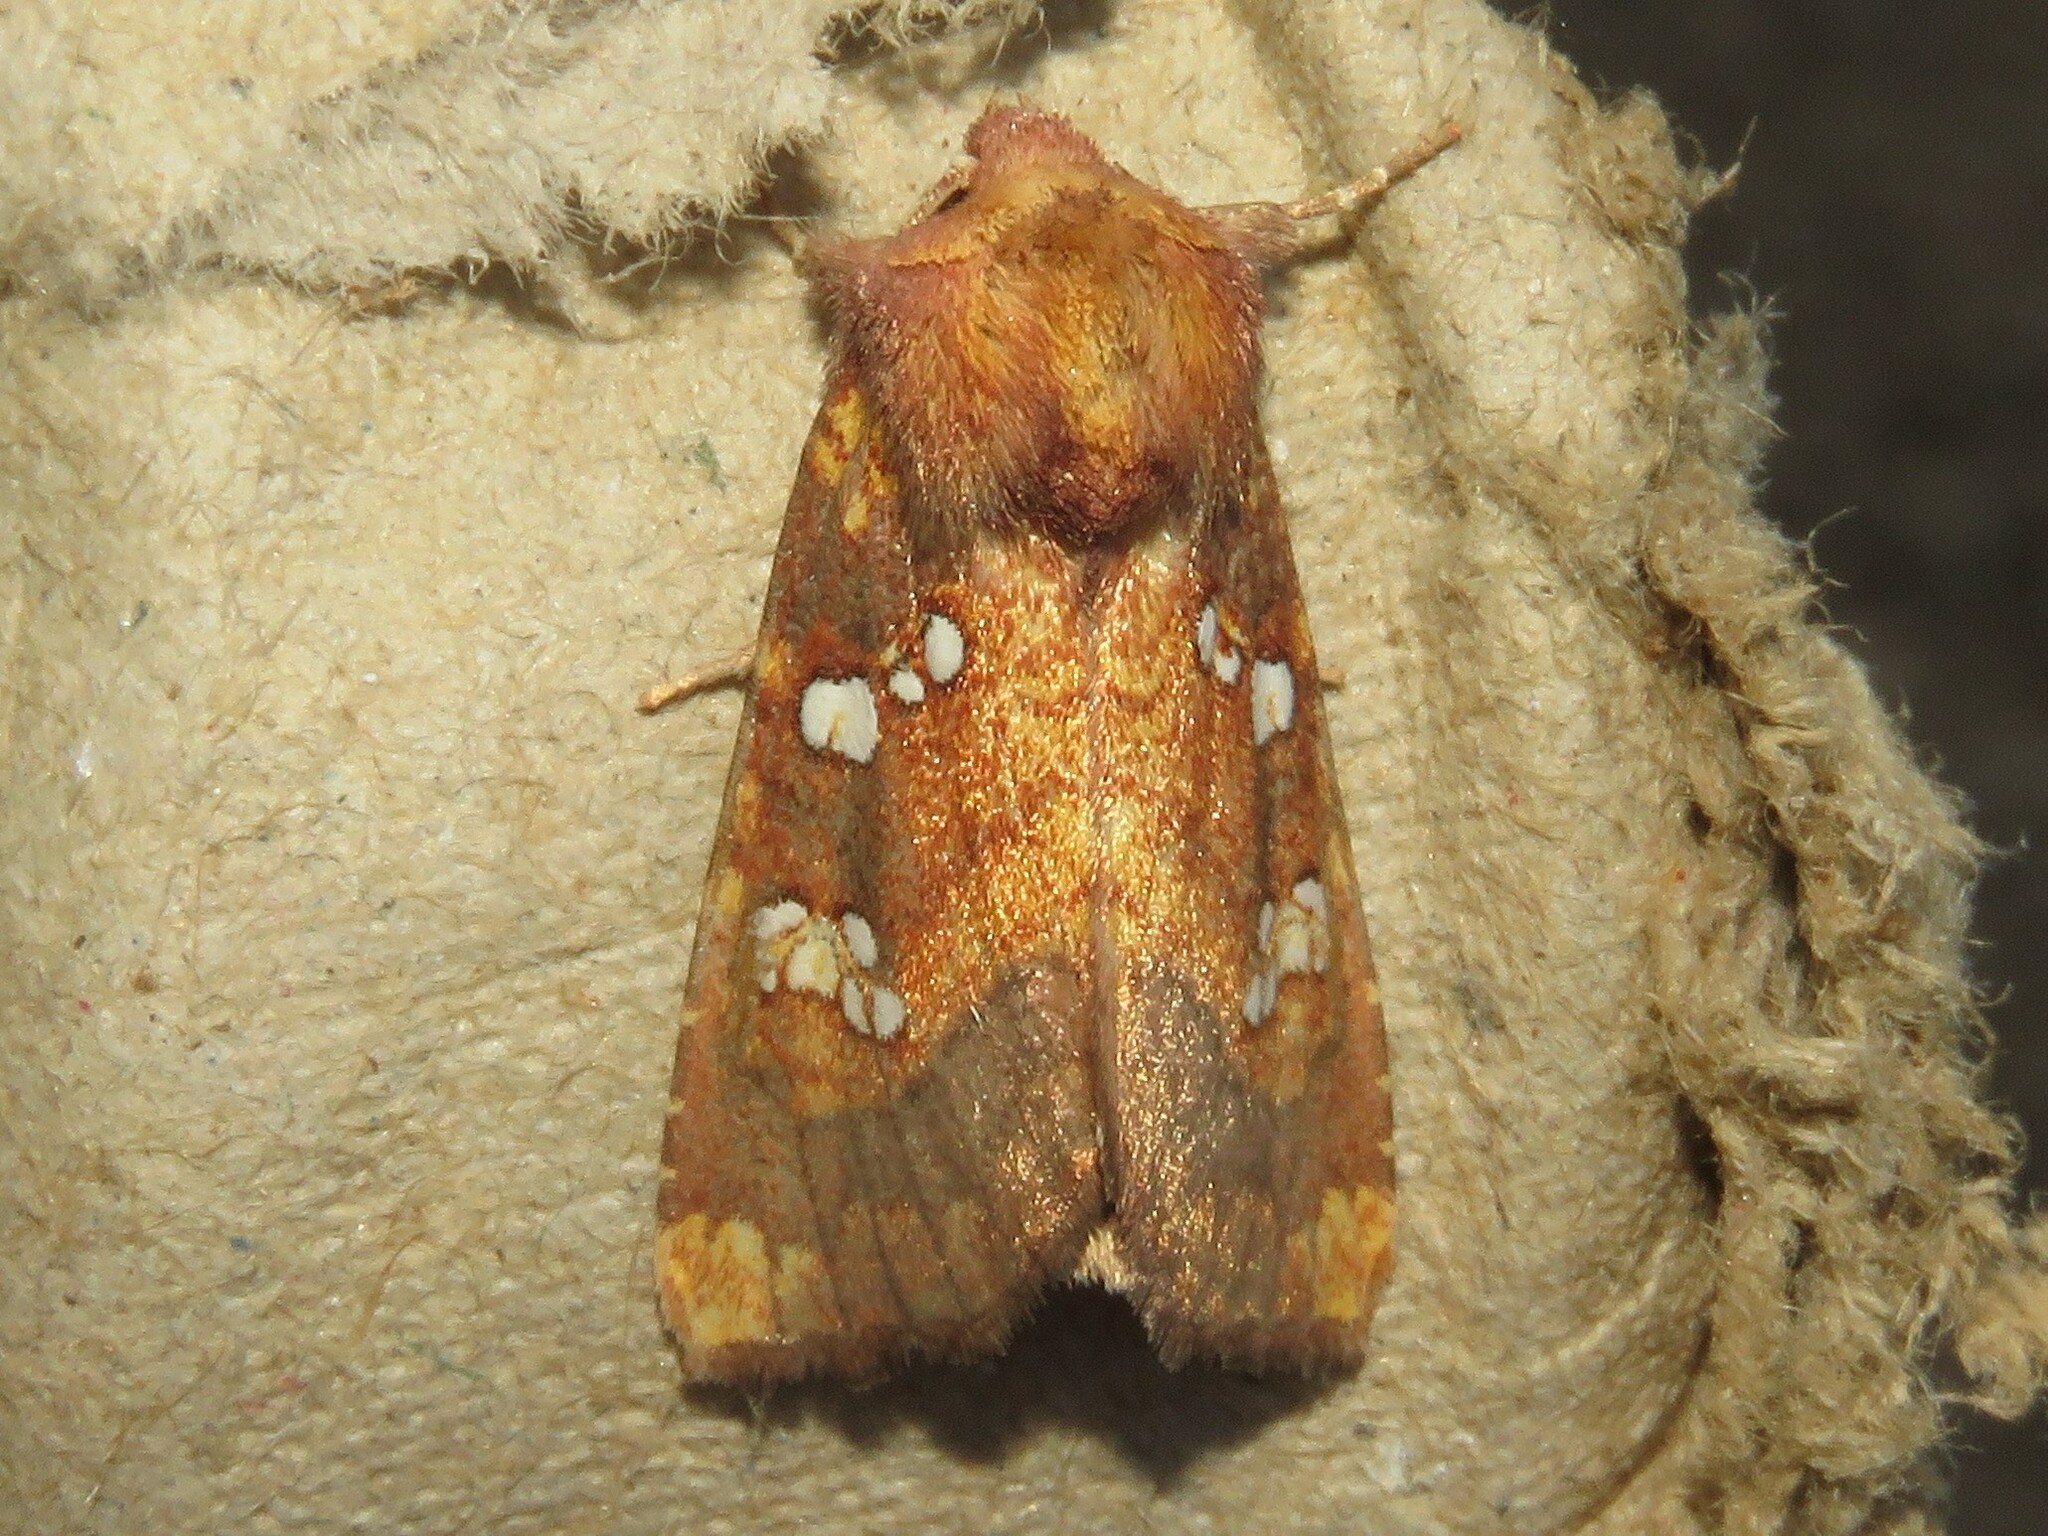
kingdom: Animalia
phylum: Arthropoda
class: Insecta
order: Lepidoptera
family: Noctuidae
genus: Papaipema
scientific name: Papaipema baptisiae
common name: Wild indigo borer moth
